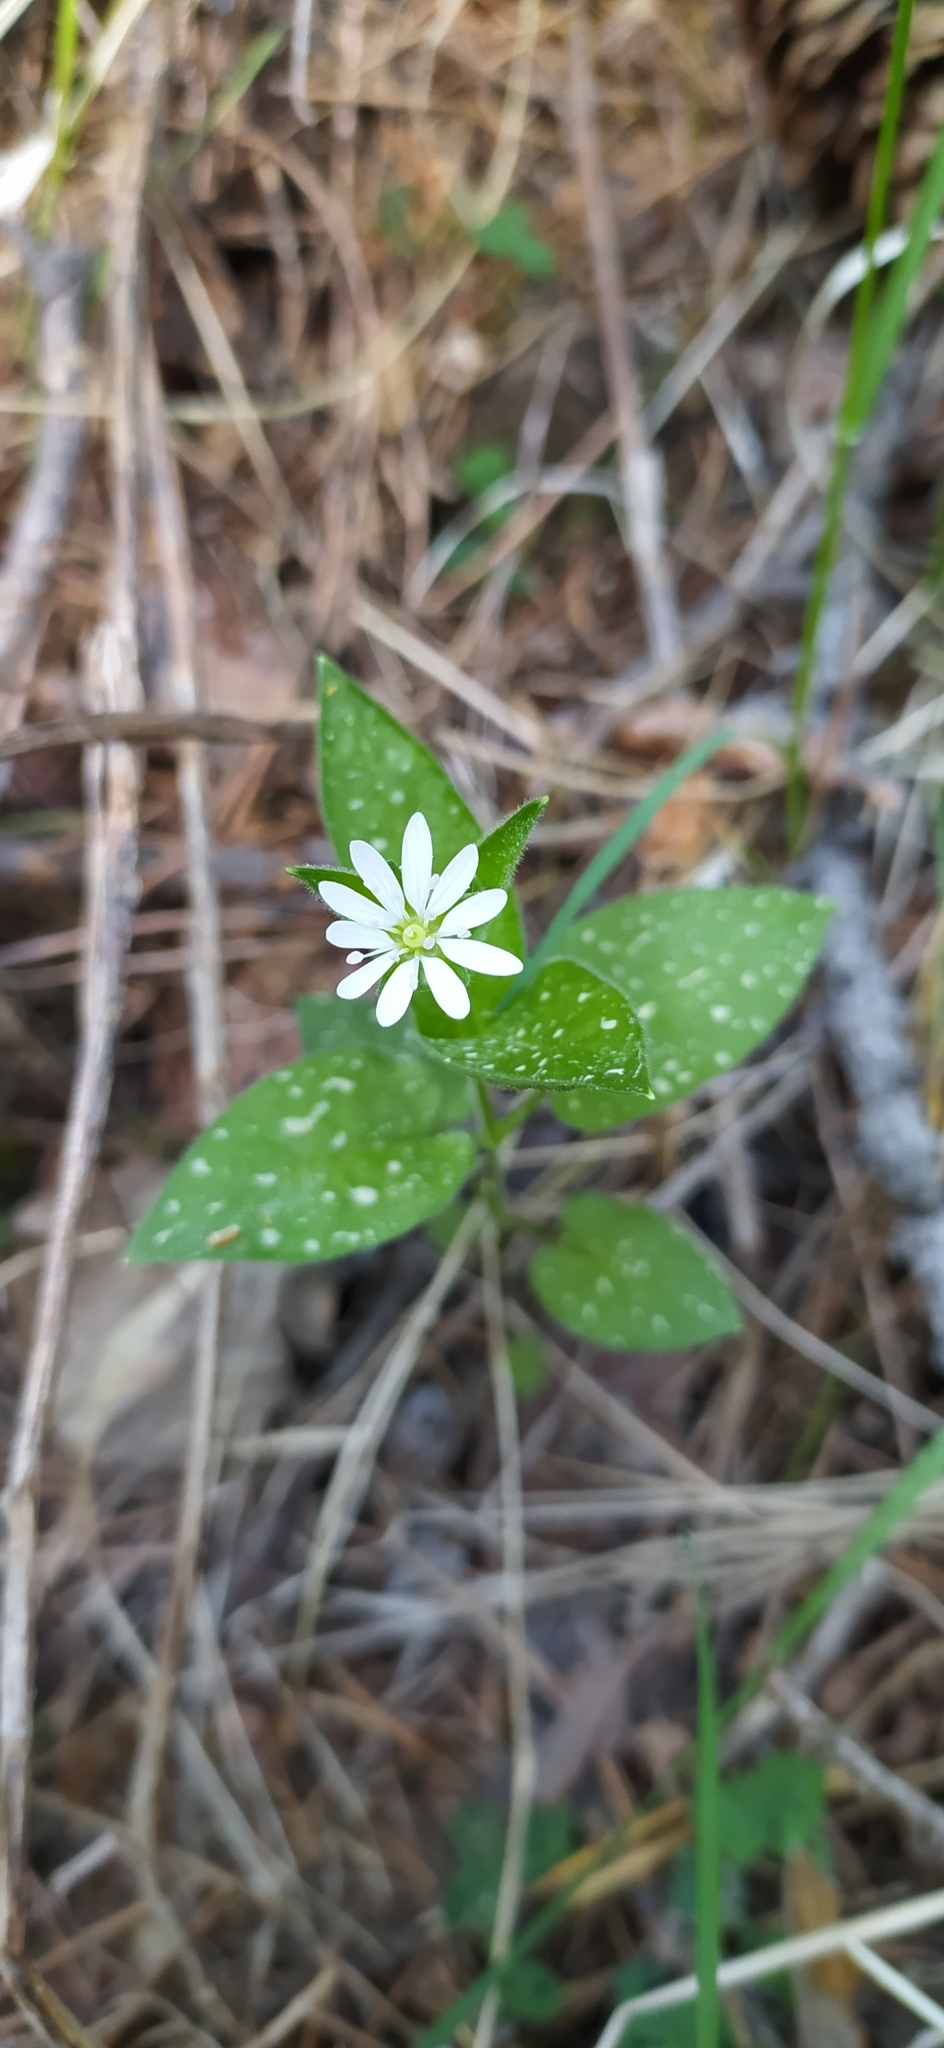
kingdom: Plantae
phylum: Tracheophyta
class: Magnoliopsida
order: Caryophyllales
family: Caryophyllaceae
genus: Stellaria
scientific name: Stellaria bungeana
